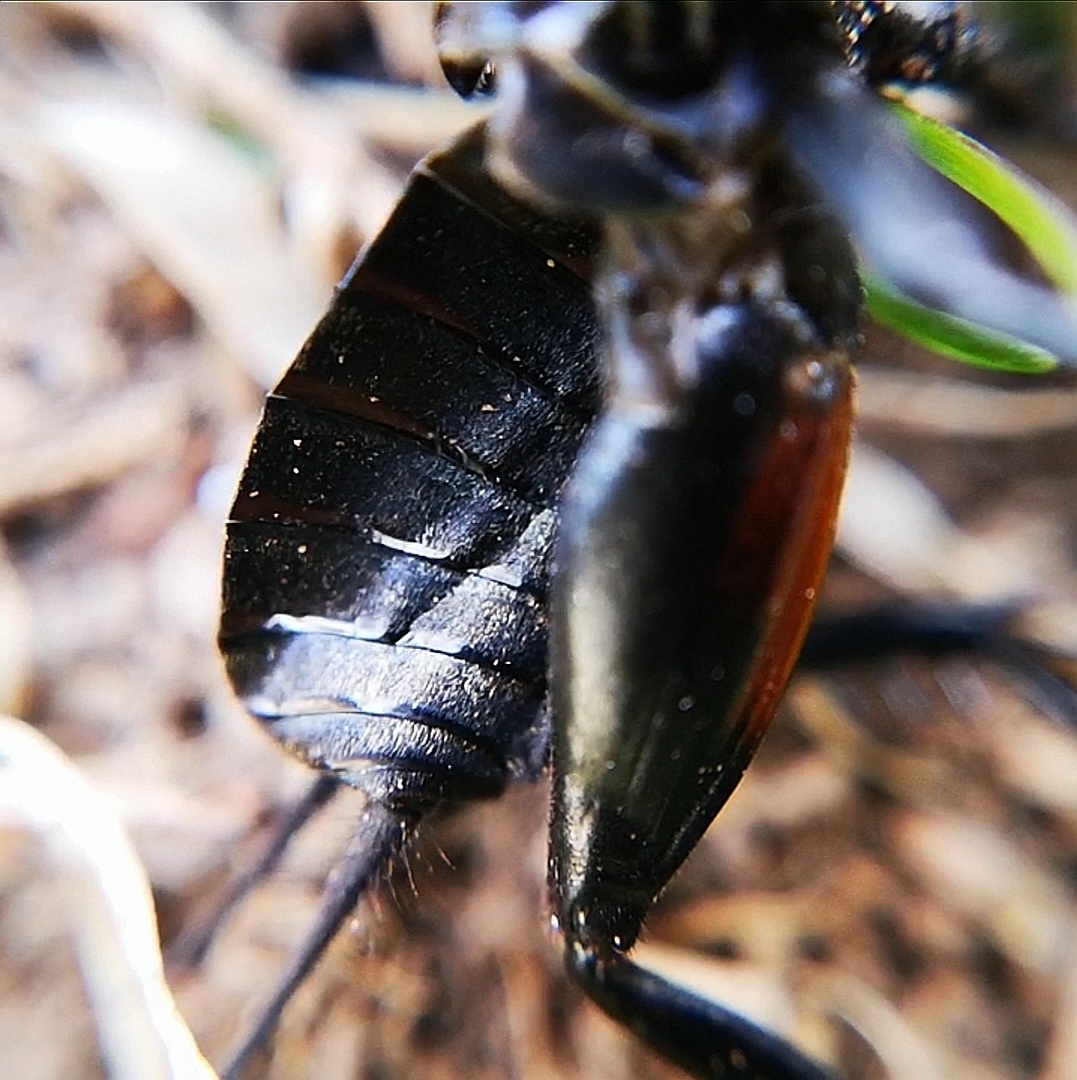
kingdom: Animalia
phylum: Arthropoda
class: Insecta
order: Orthoptera
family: Gryllidae
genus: Gryllus
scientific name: Gryllus campestris
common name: Field cricket
